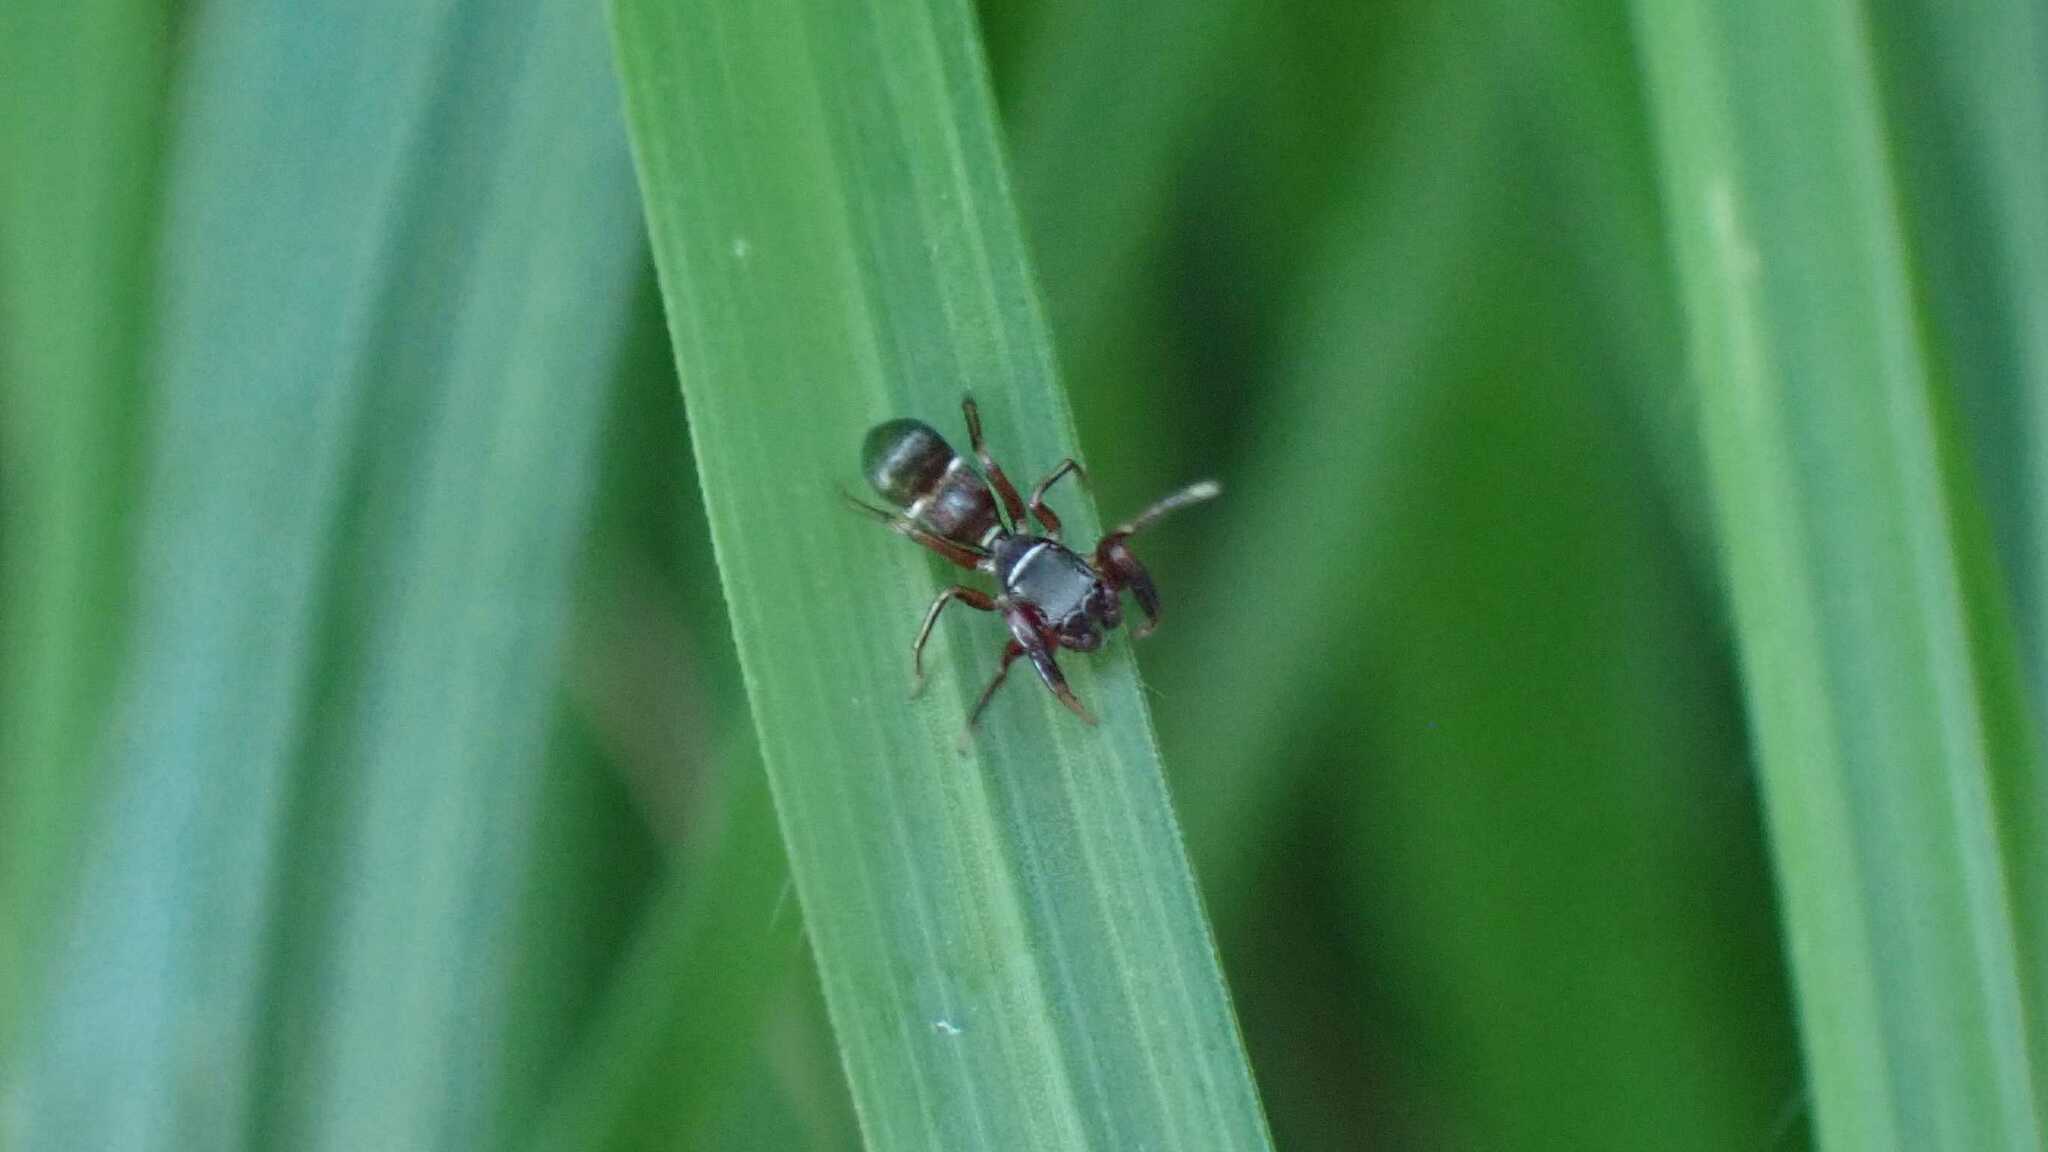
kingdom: Animalia
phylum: Arthropoda
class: Arachnida
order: Araneae
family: Salticidae
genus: Synageles
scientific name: Synageles venator
